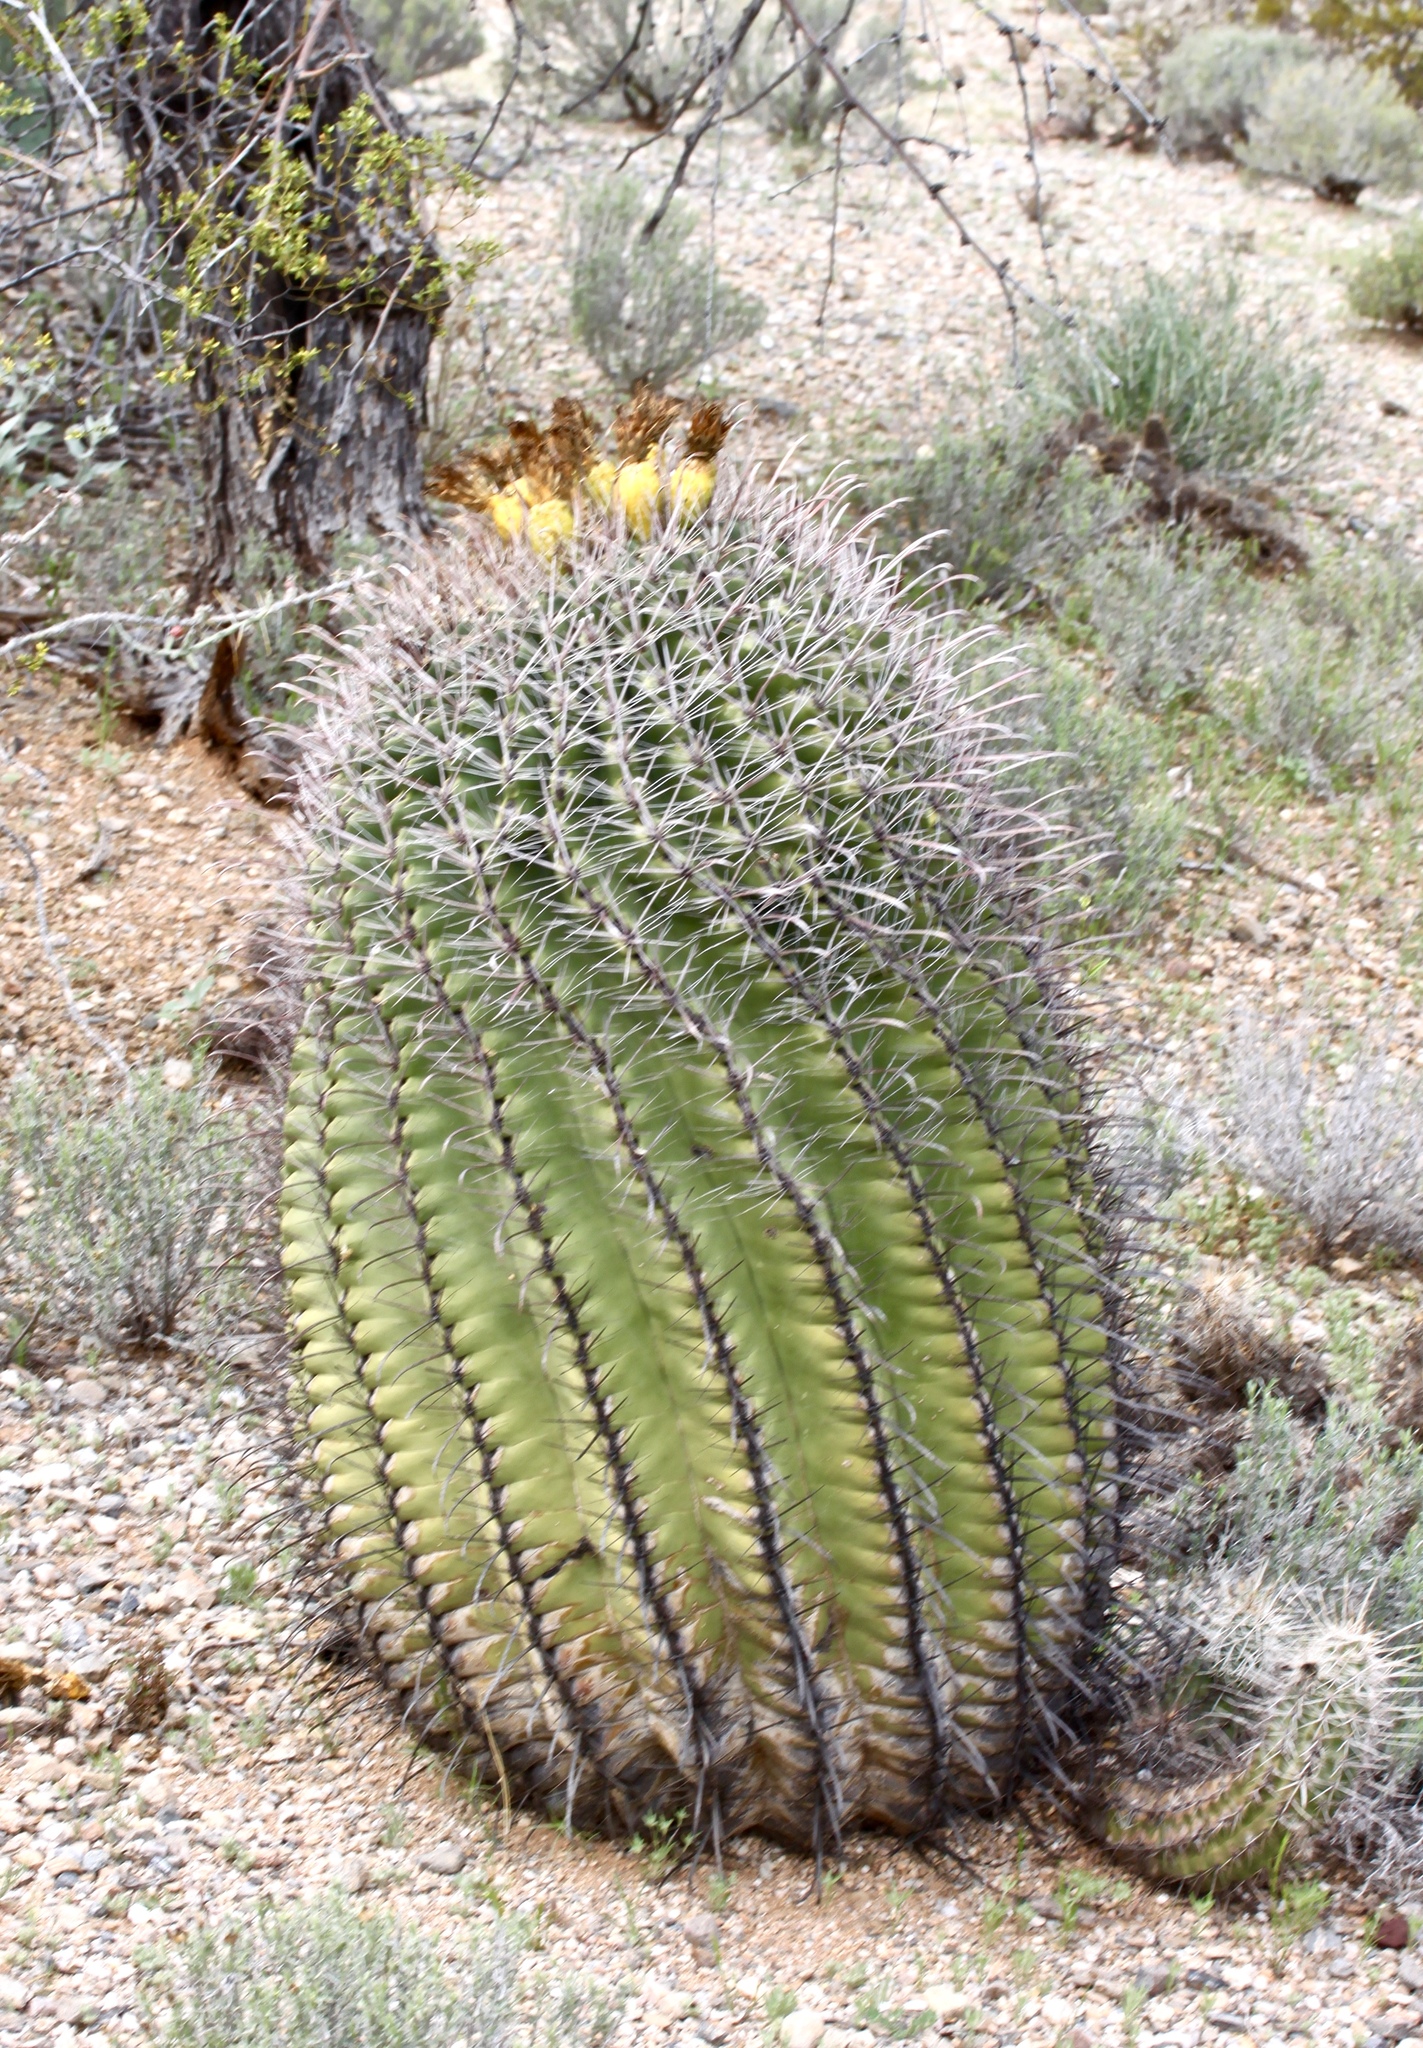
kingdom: Plantae
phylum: Tracheophyta
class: Magnoliopsida
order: Caryophyllales
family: Cactaceae
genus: Ferocactus
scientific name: Ferocactus wislizeni
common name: Candy barrel cactus
